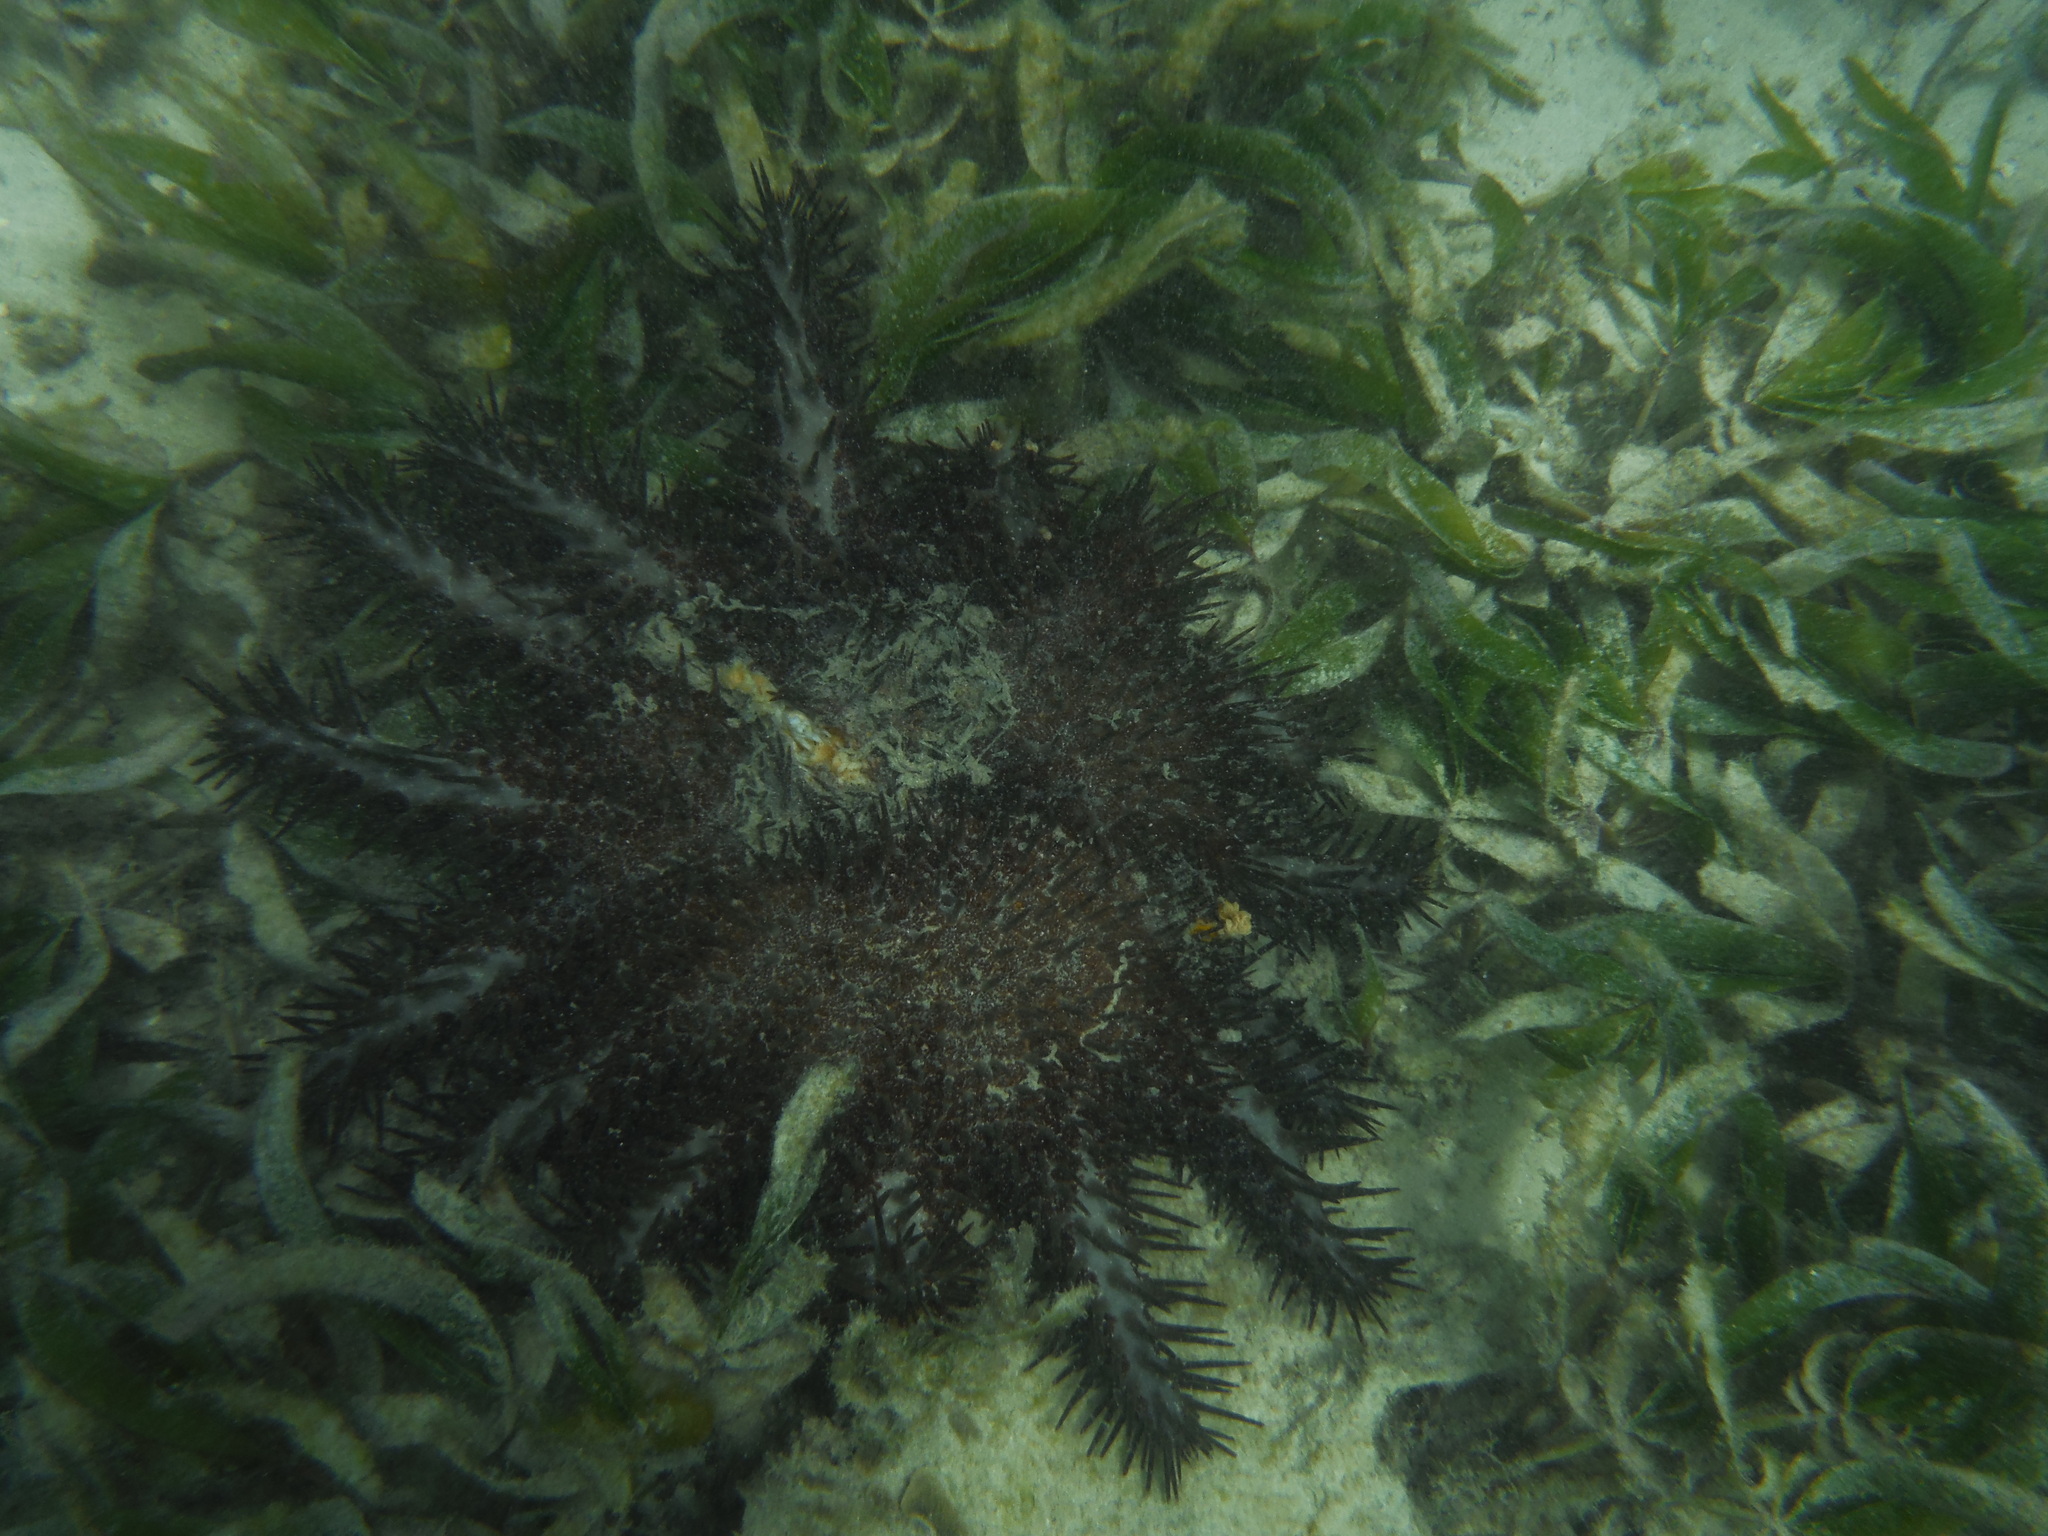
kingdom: Animalia
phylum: Echinodermata
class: Asteroidea
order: Valvatida
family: Acanthasteridae
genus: Acanthaster
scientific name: Acanthaster planci
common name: Crown-of-thorns
